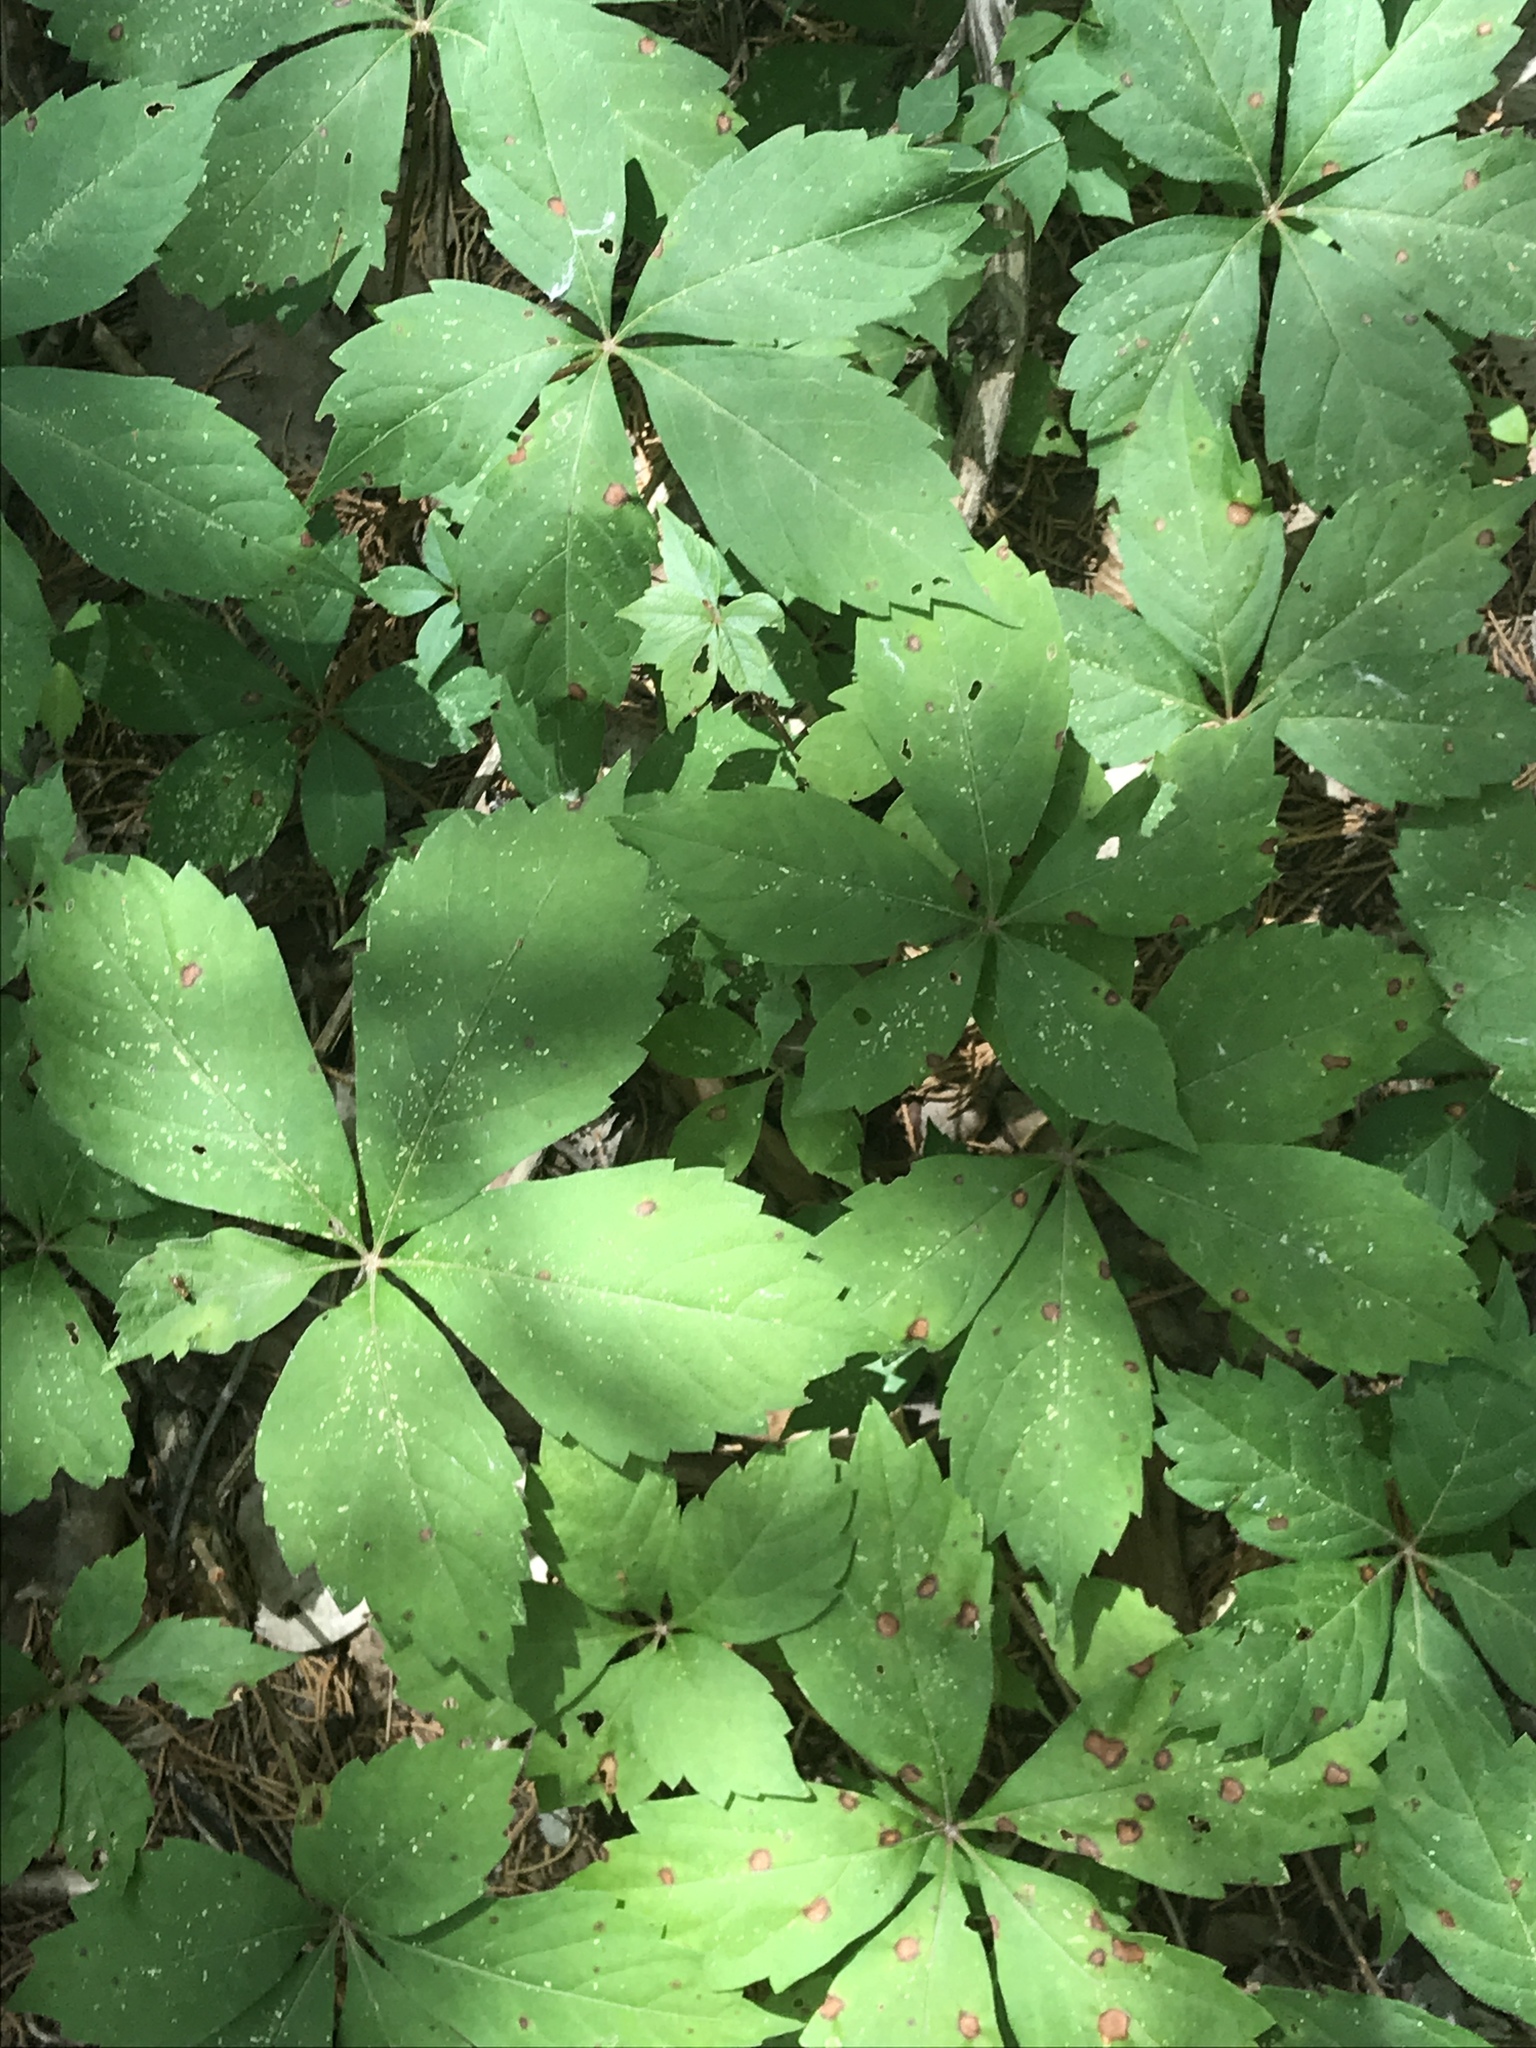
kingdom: Plantae
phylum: Tracheophyta
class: Magnoliopsida
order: Vitales
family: Vitaceae
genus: Parthenocissus
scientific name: Parthenocissus quinquefolia
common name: Virginia-creeper
